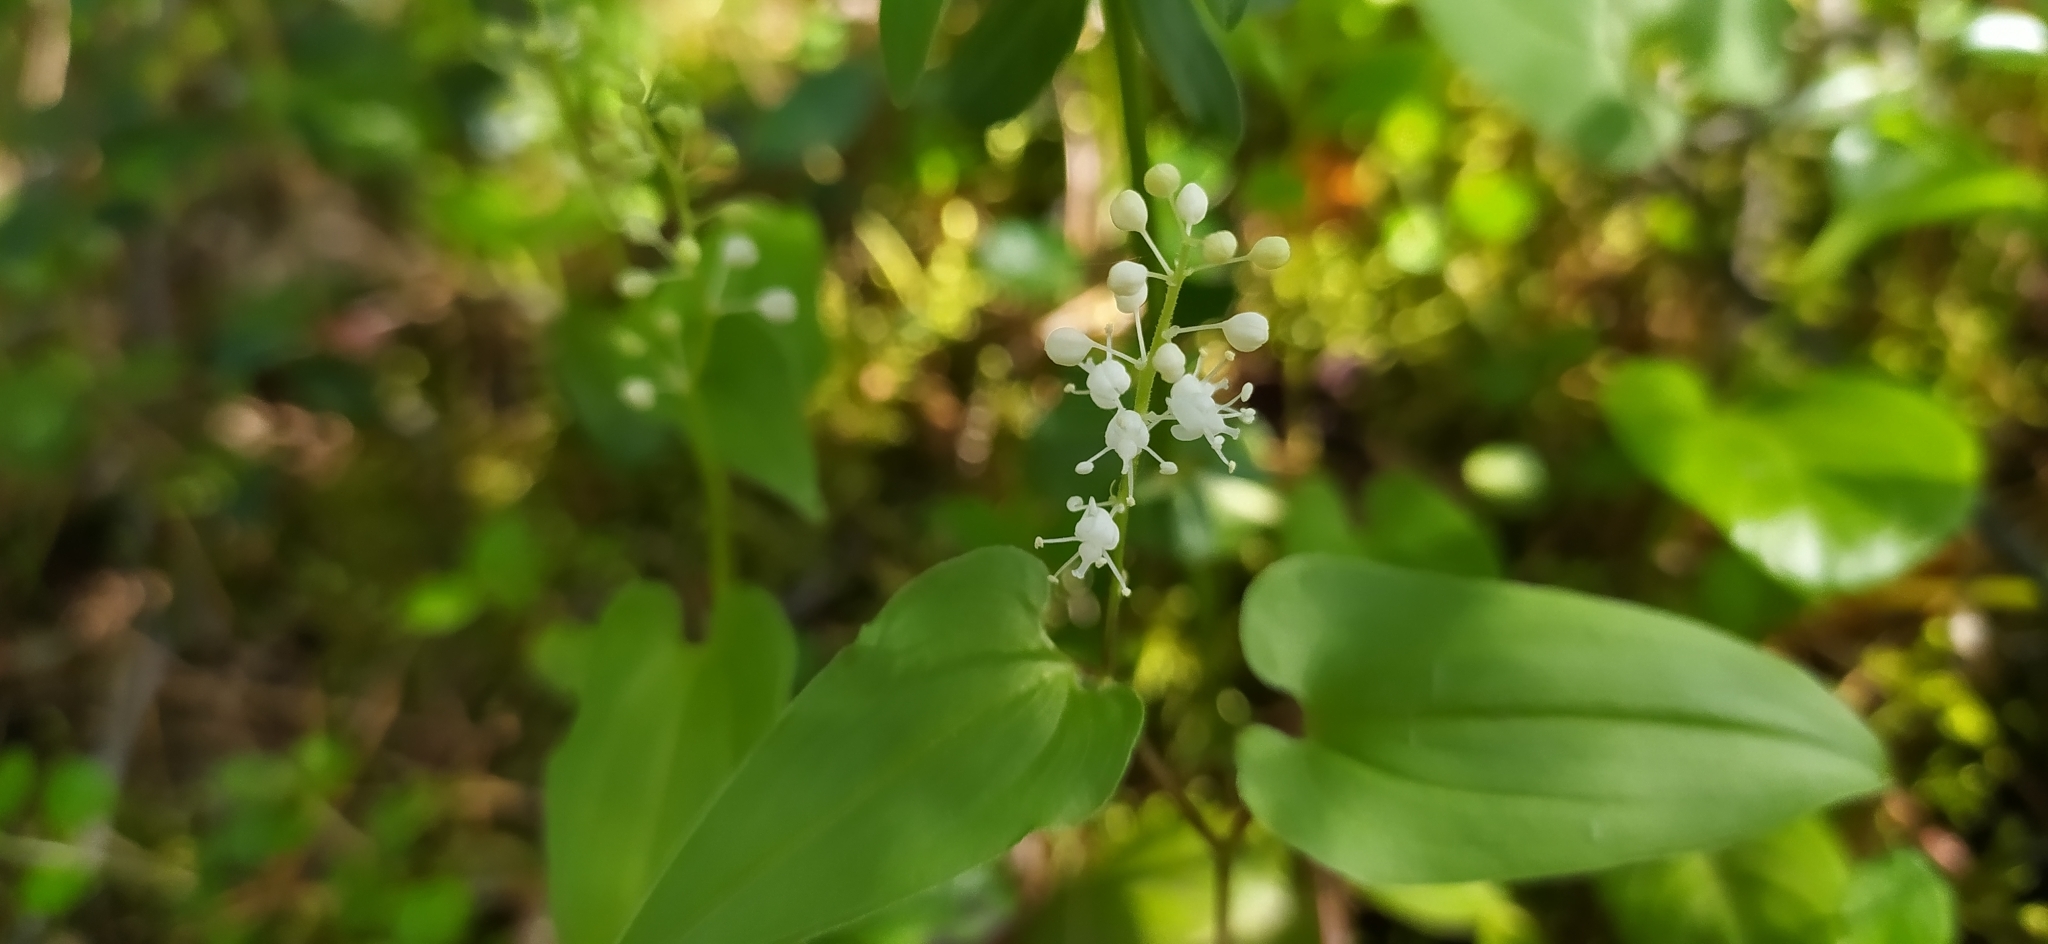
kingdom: Plantae
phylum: Tracheophyta
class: Liliopsida
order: Asparagales
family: Asparagaceae
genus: Maianthemum
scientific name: Maianthemum bifolium
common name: May lily
